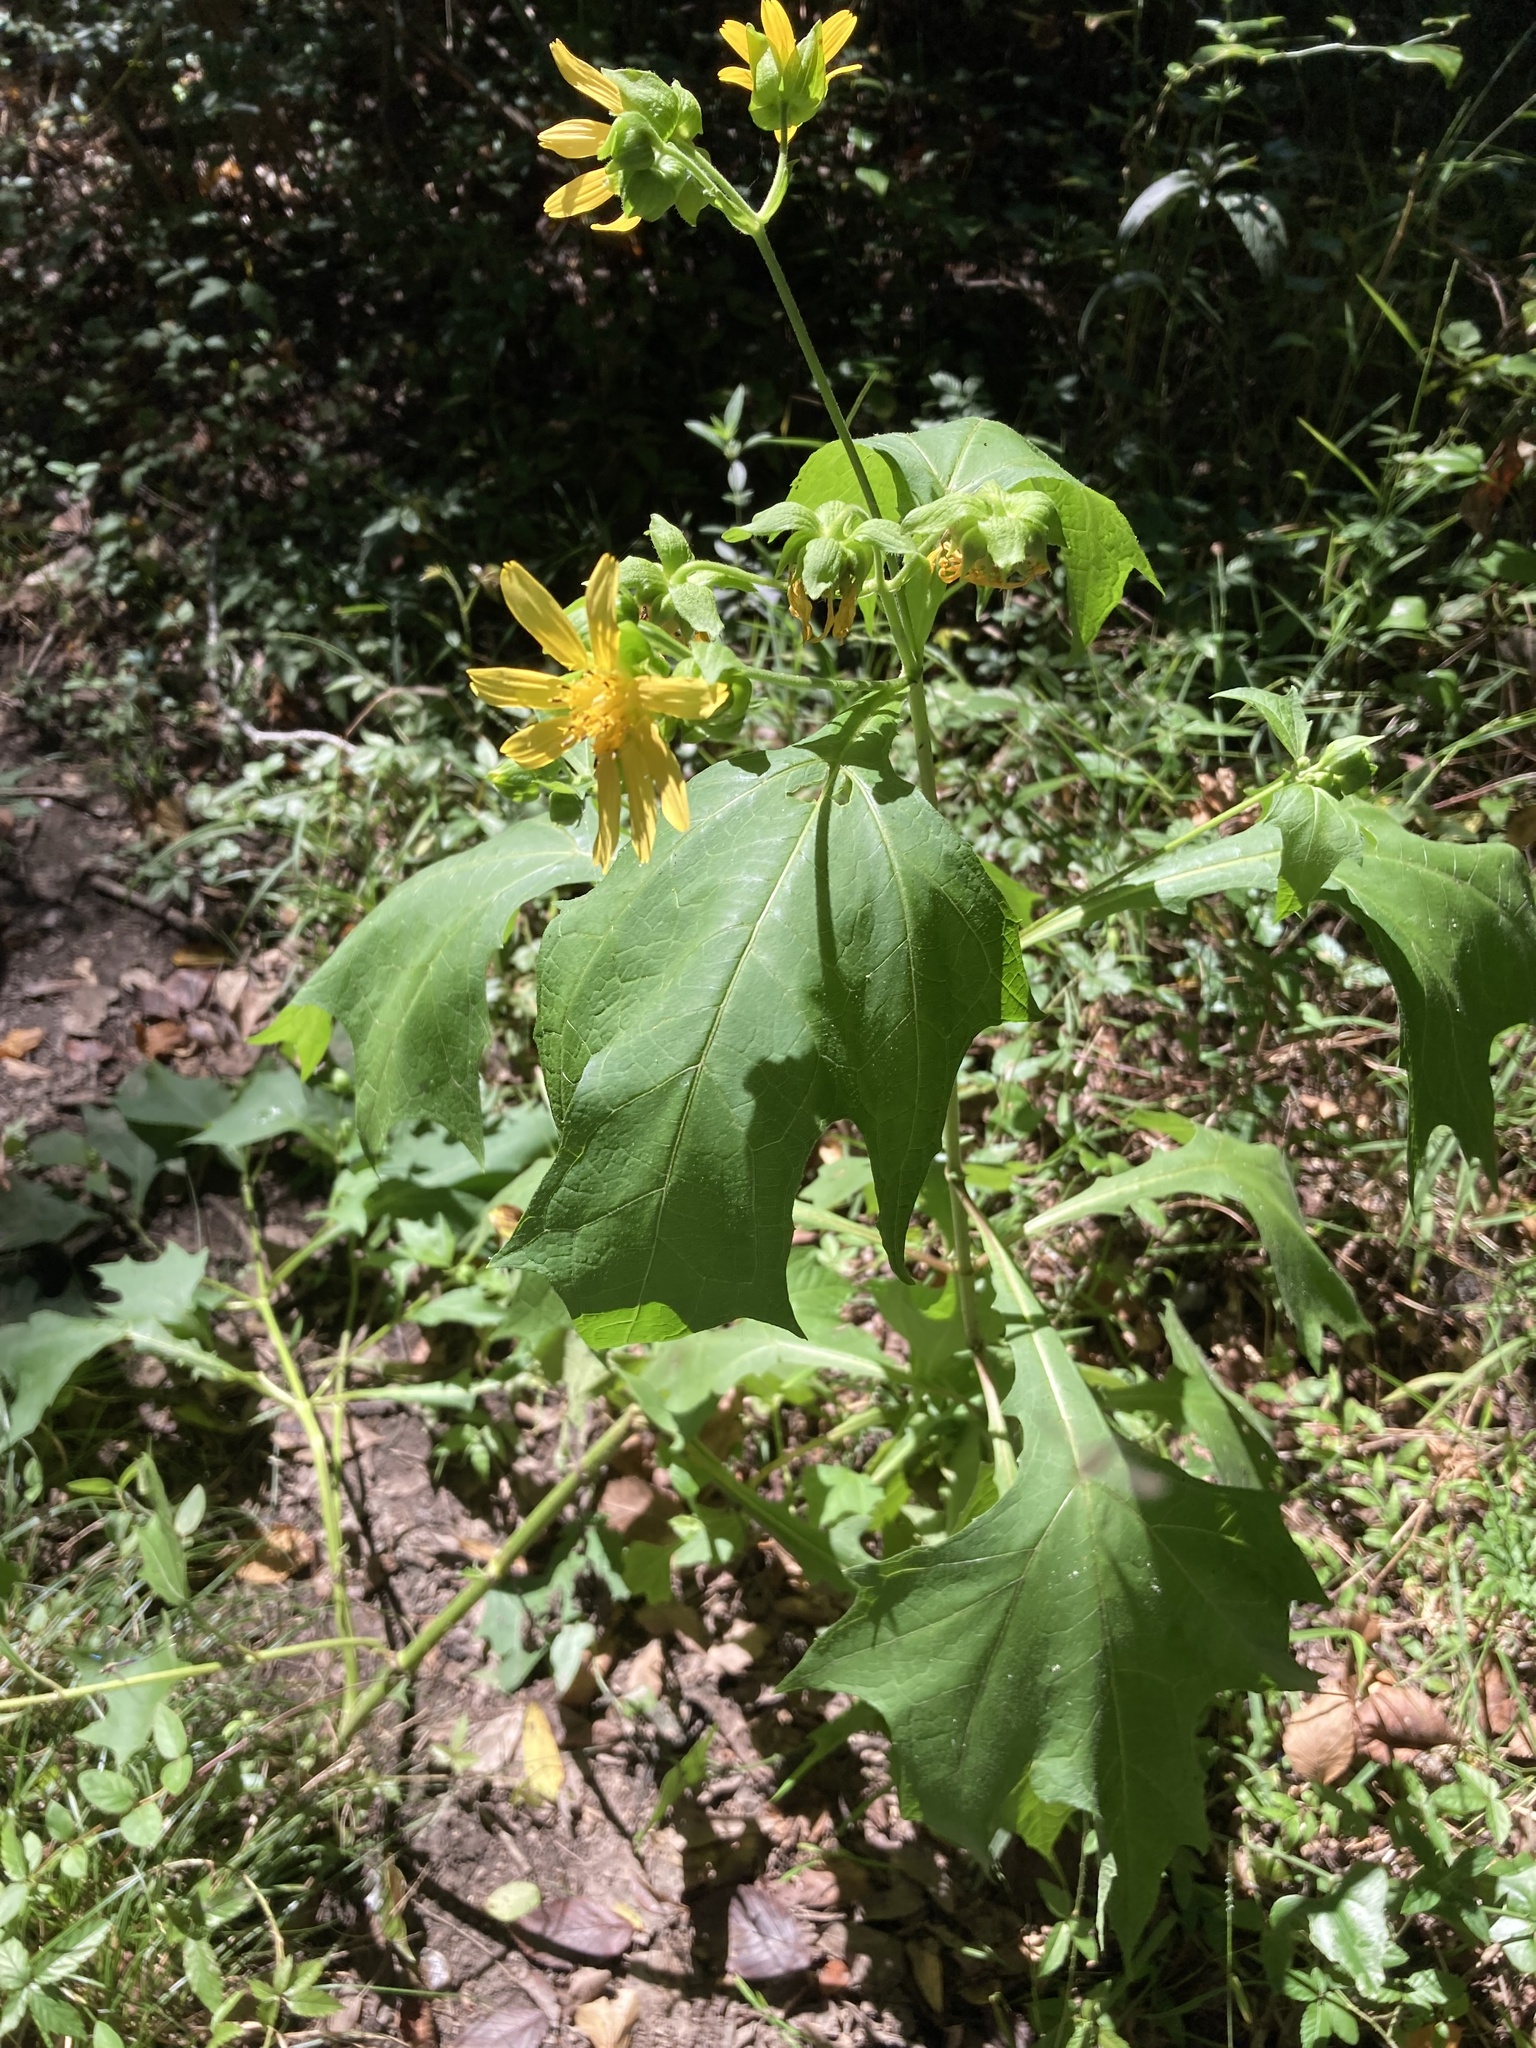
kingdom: Plantae
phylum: Tracheophyta
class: Magnoliopsida
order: Asterales
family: Asteraceae
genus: Smallanthus
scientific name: Smallanthus uvedalia
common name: Bear's-foot
